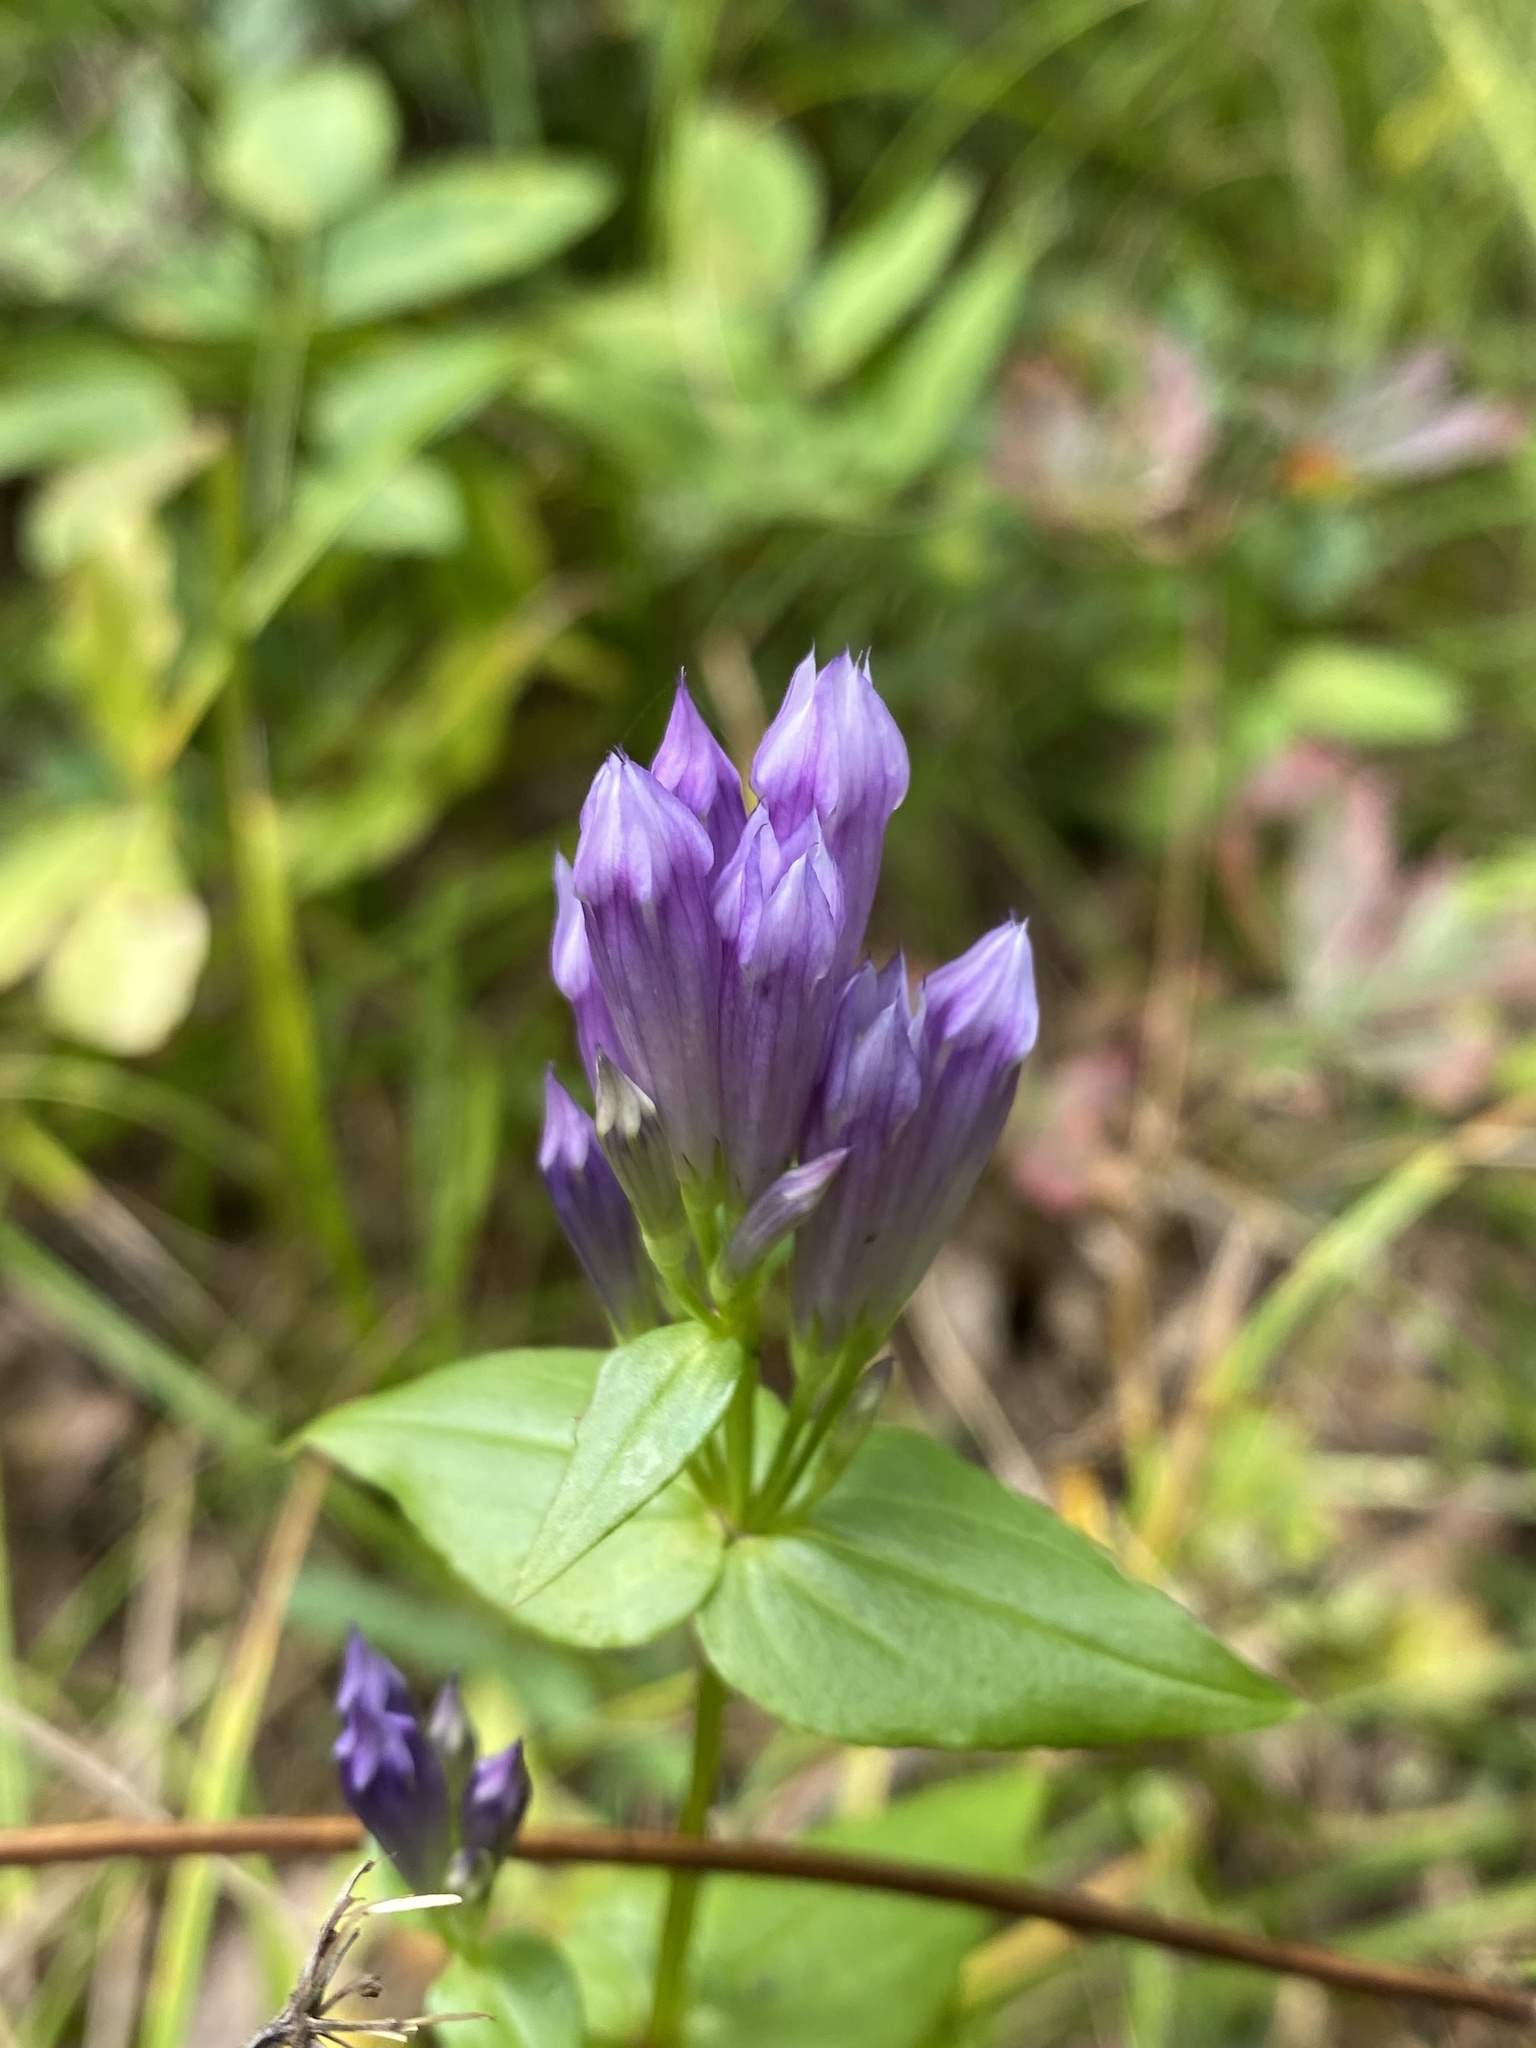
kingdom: Plantae
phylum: Tracheophyta
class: Magnoliopsida
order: Gentianales
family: Gentianaceae
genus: Gentianella
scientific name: Gentianella quinquefolia
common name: Agueweed
